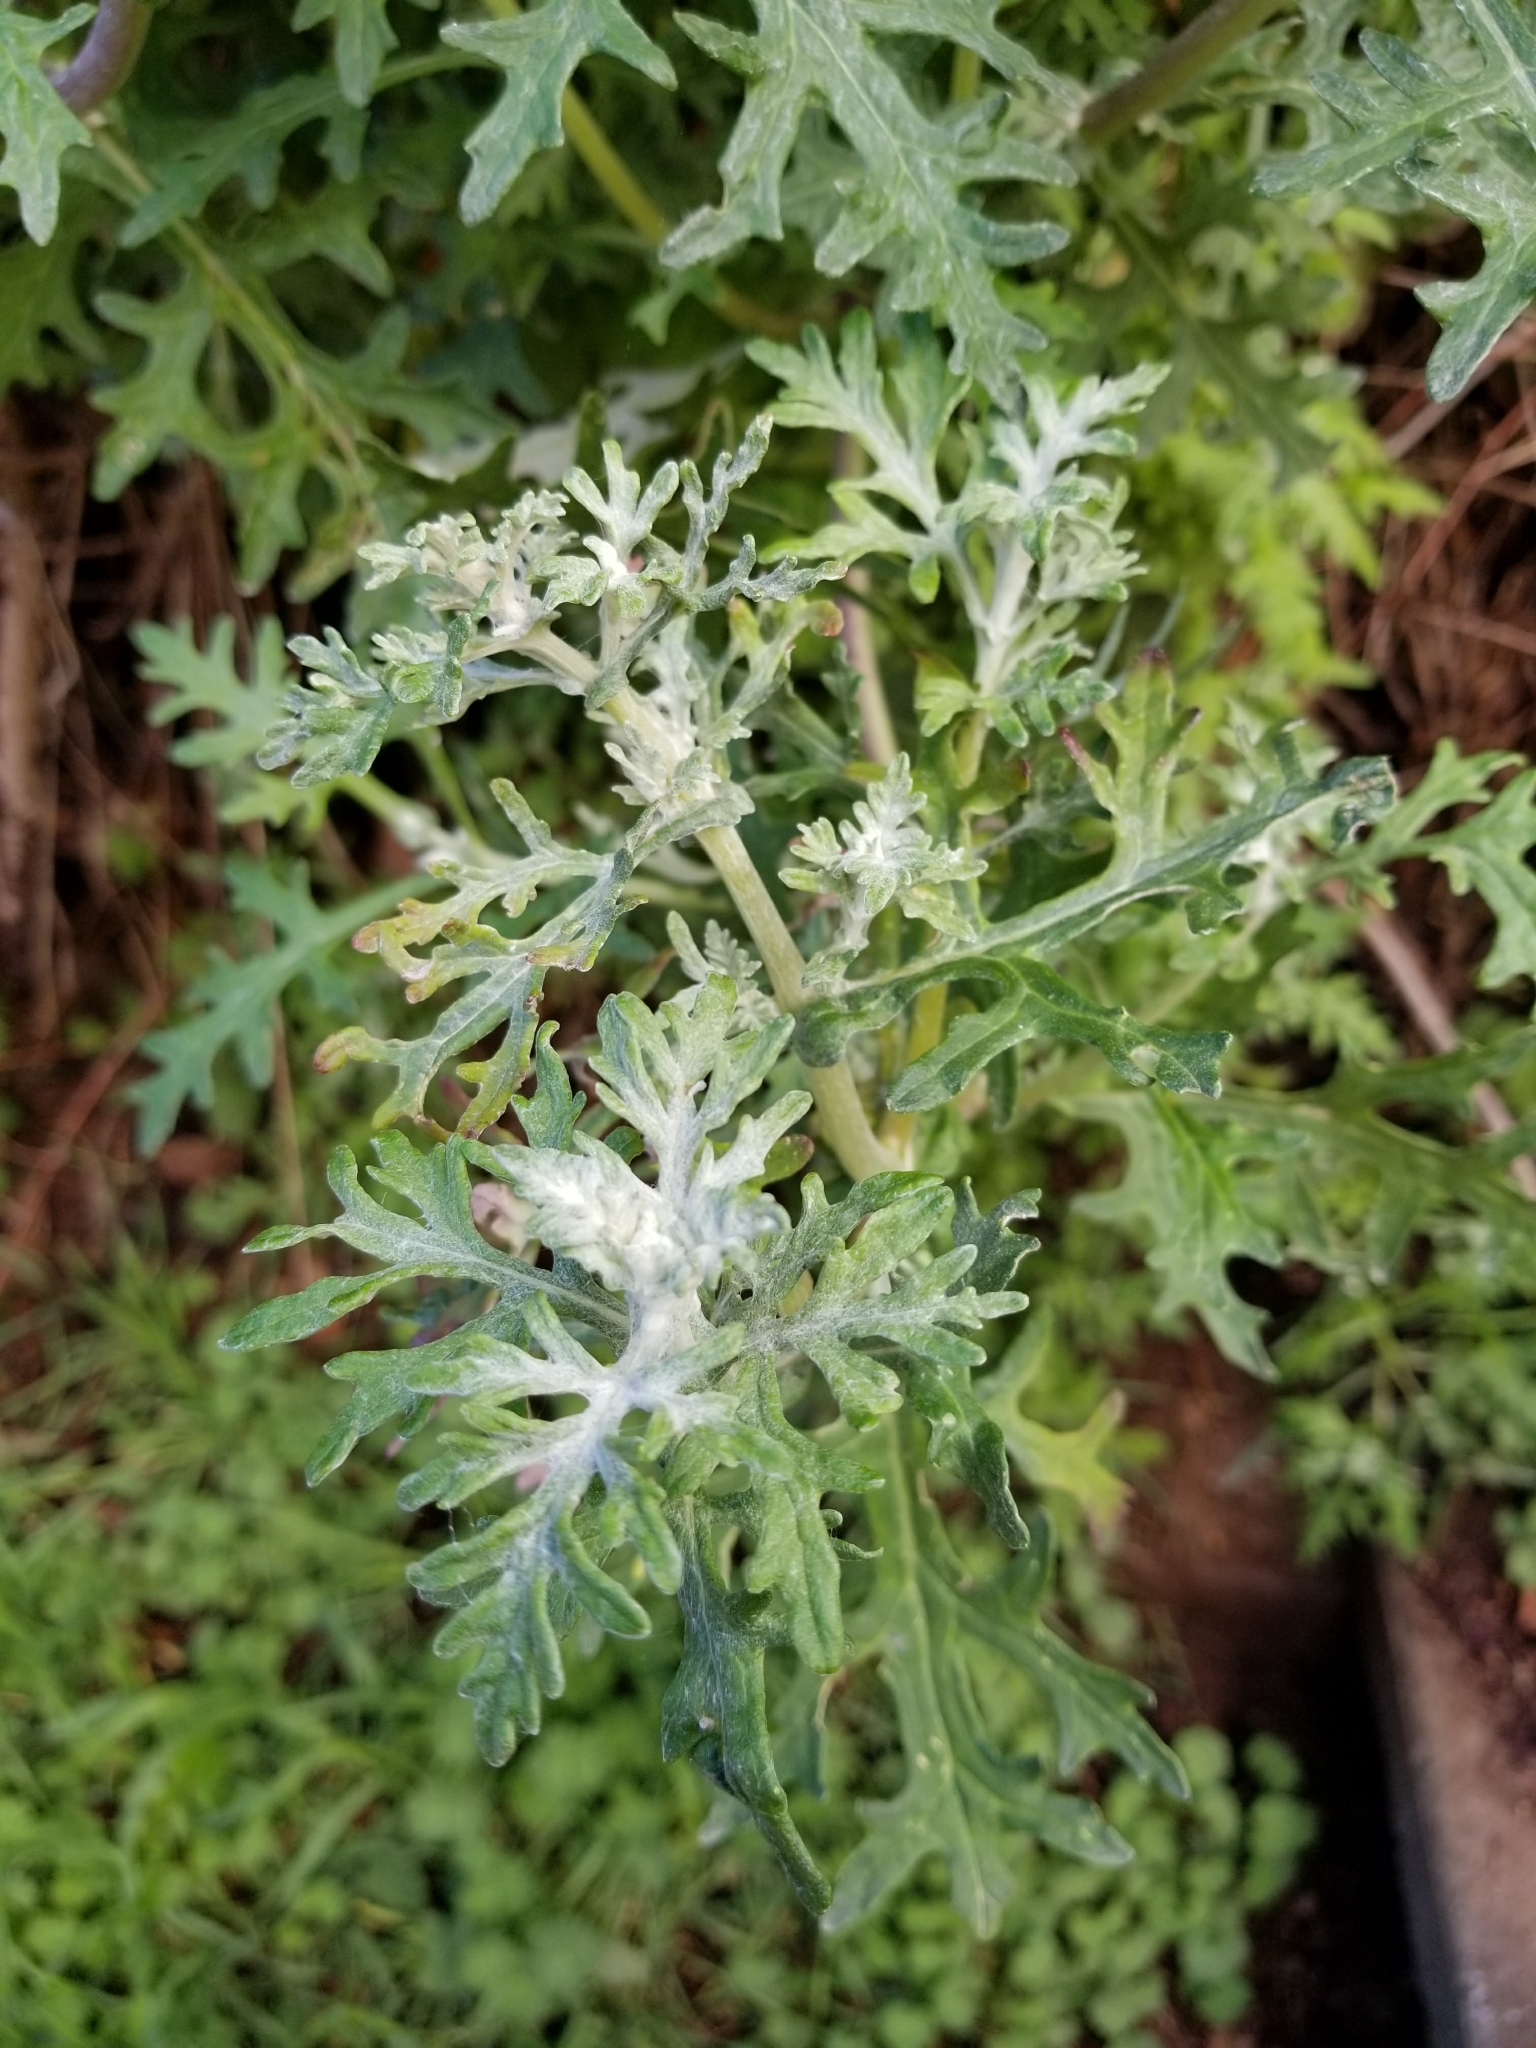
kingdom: Plantae
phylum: Tracheophyta
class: Magnoliopsida
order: Asterales
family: Asteraceae
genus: Eriophyllum
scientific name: Eriophyllum staechadifolium
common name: Lizardtail
